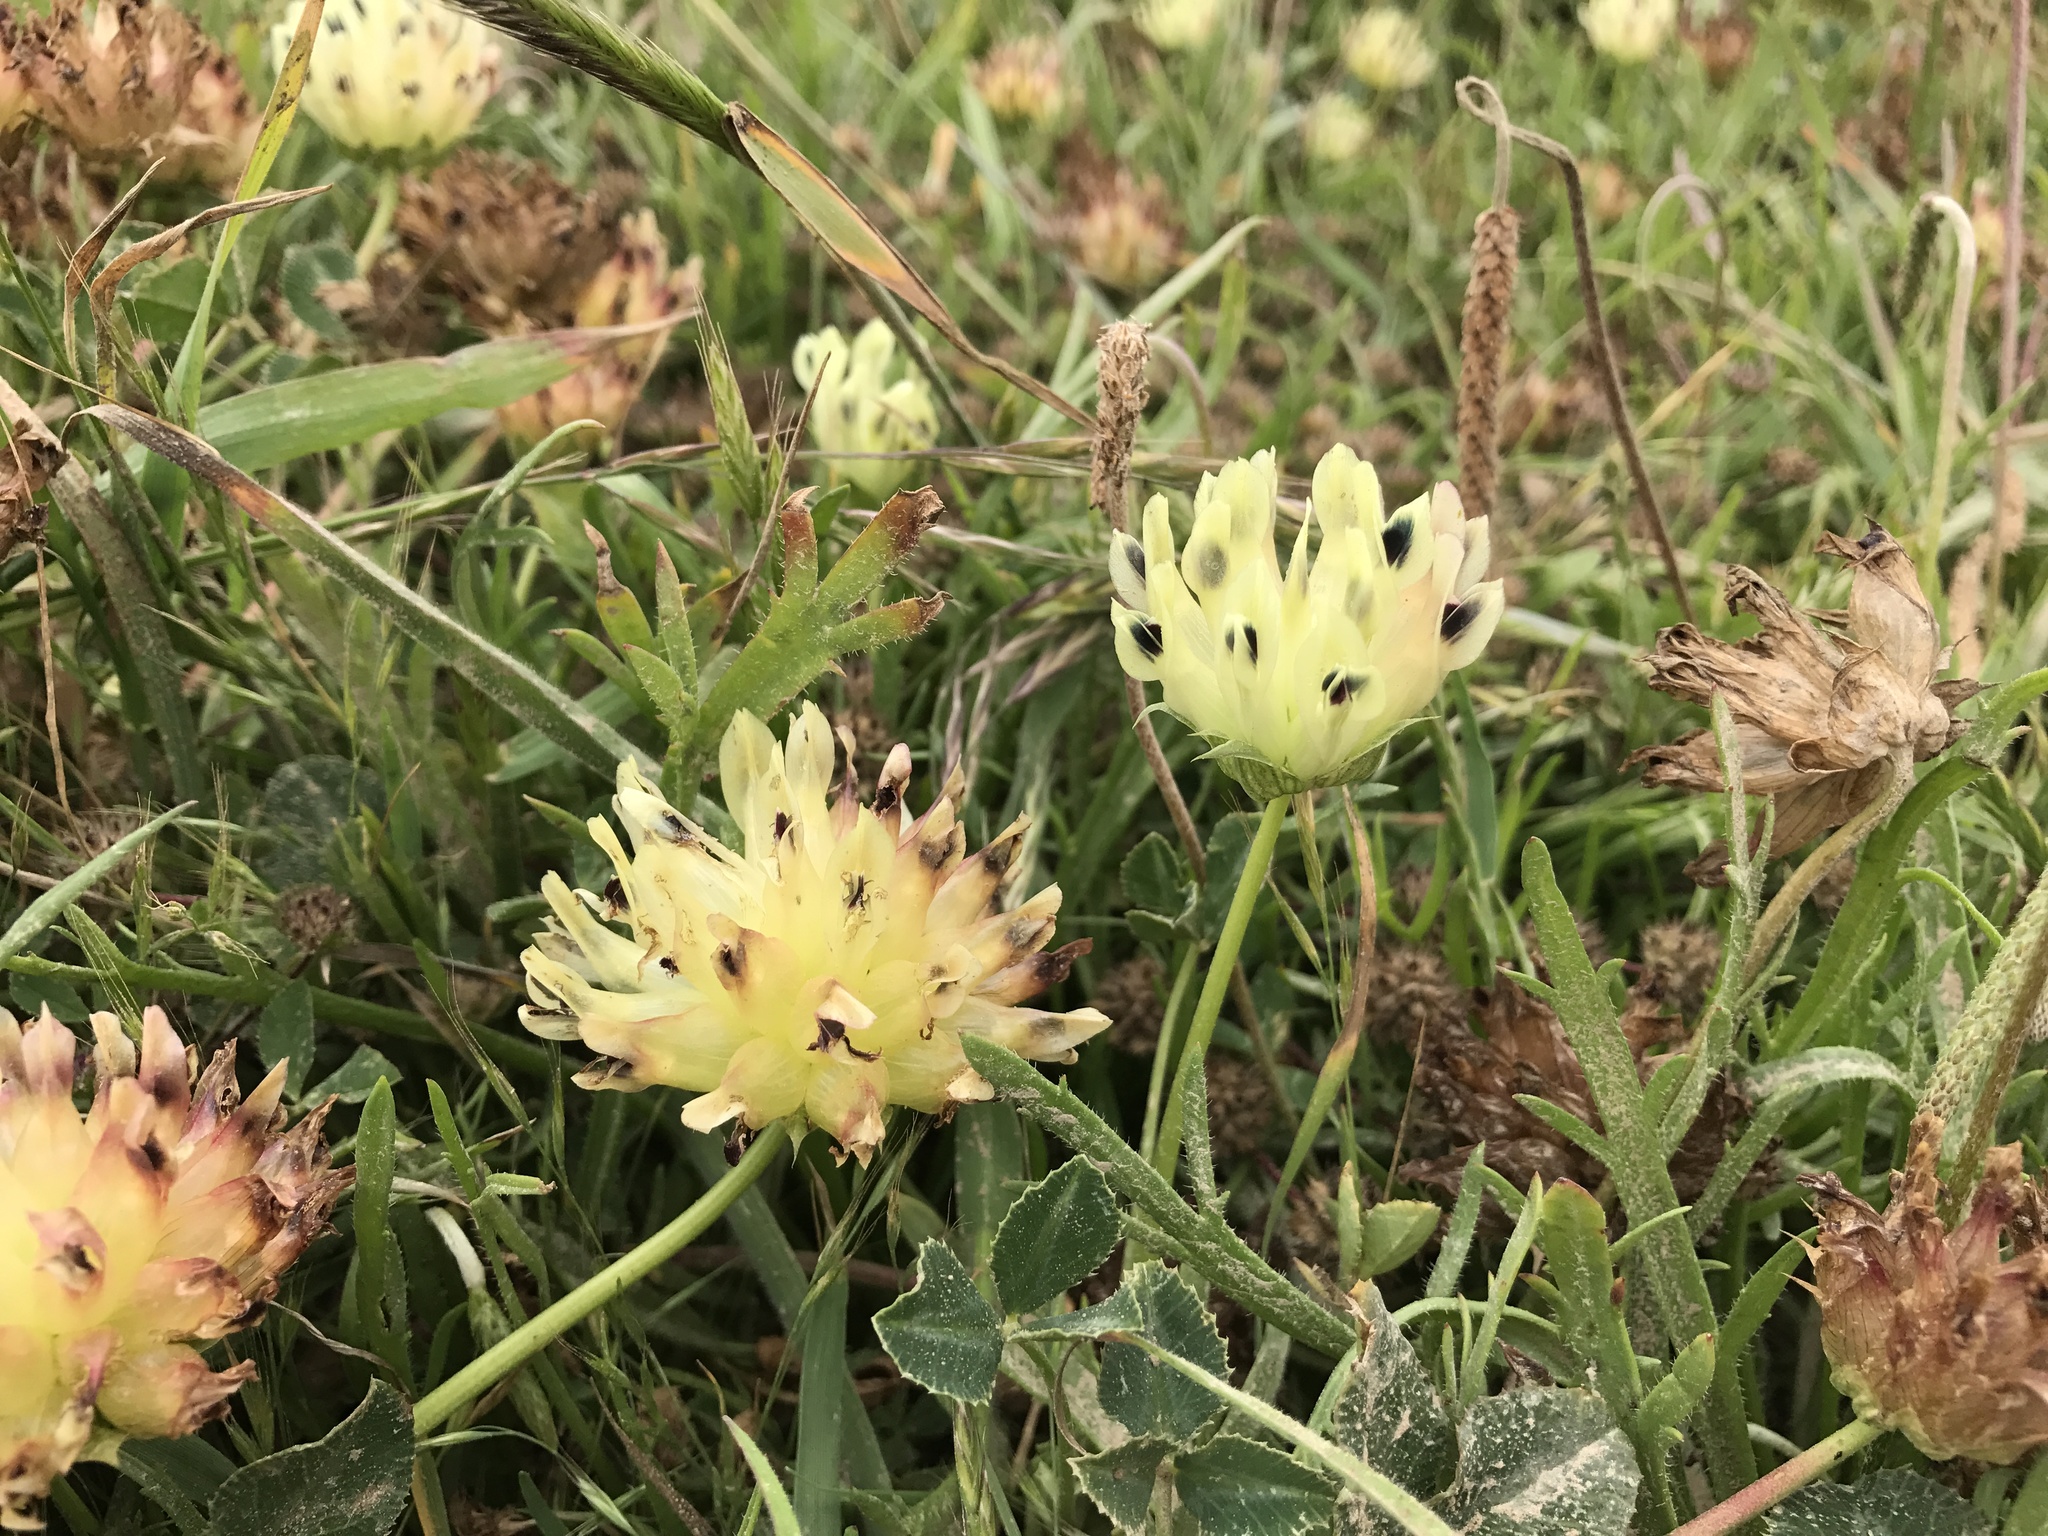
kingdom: Plantae
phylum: Tracheophyta
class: Magnoliopsida
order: Fabales
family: Fabaceae
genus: Trifolium
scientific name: Trifolium fucatum
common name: Puff clover
